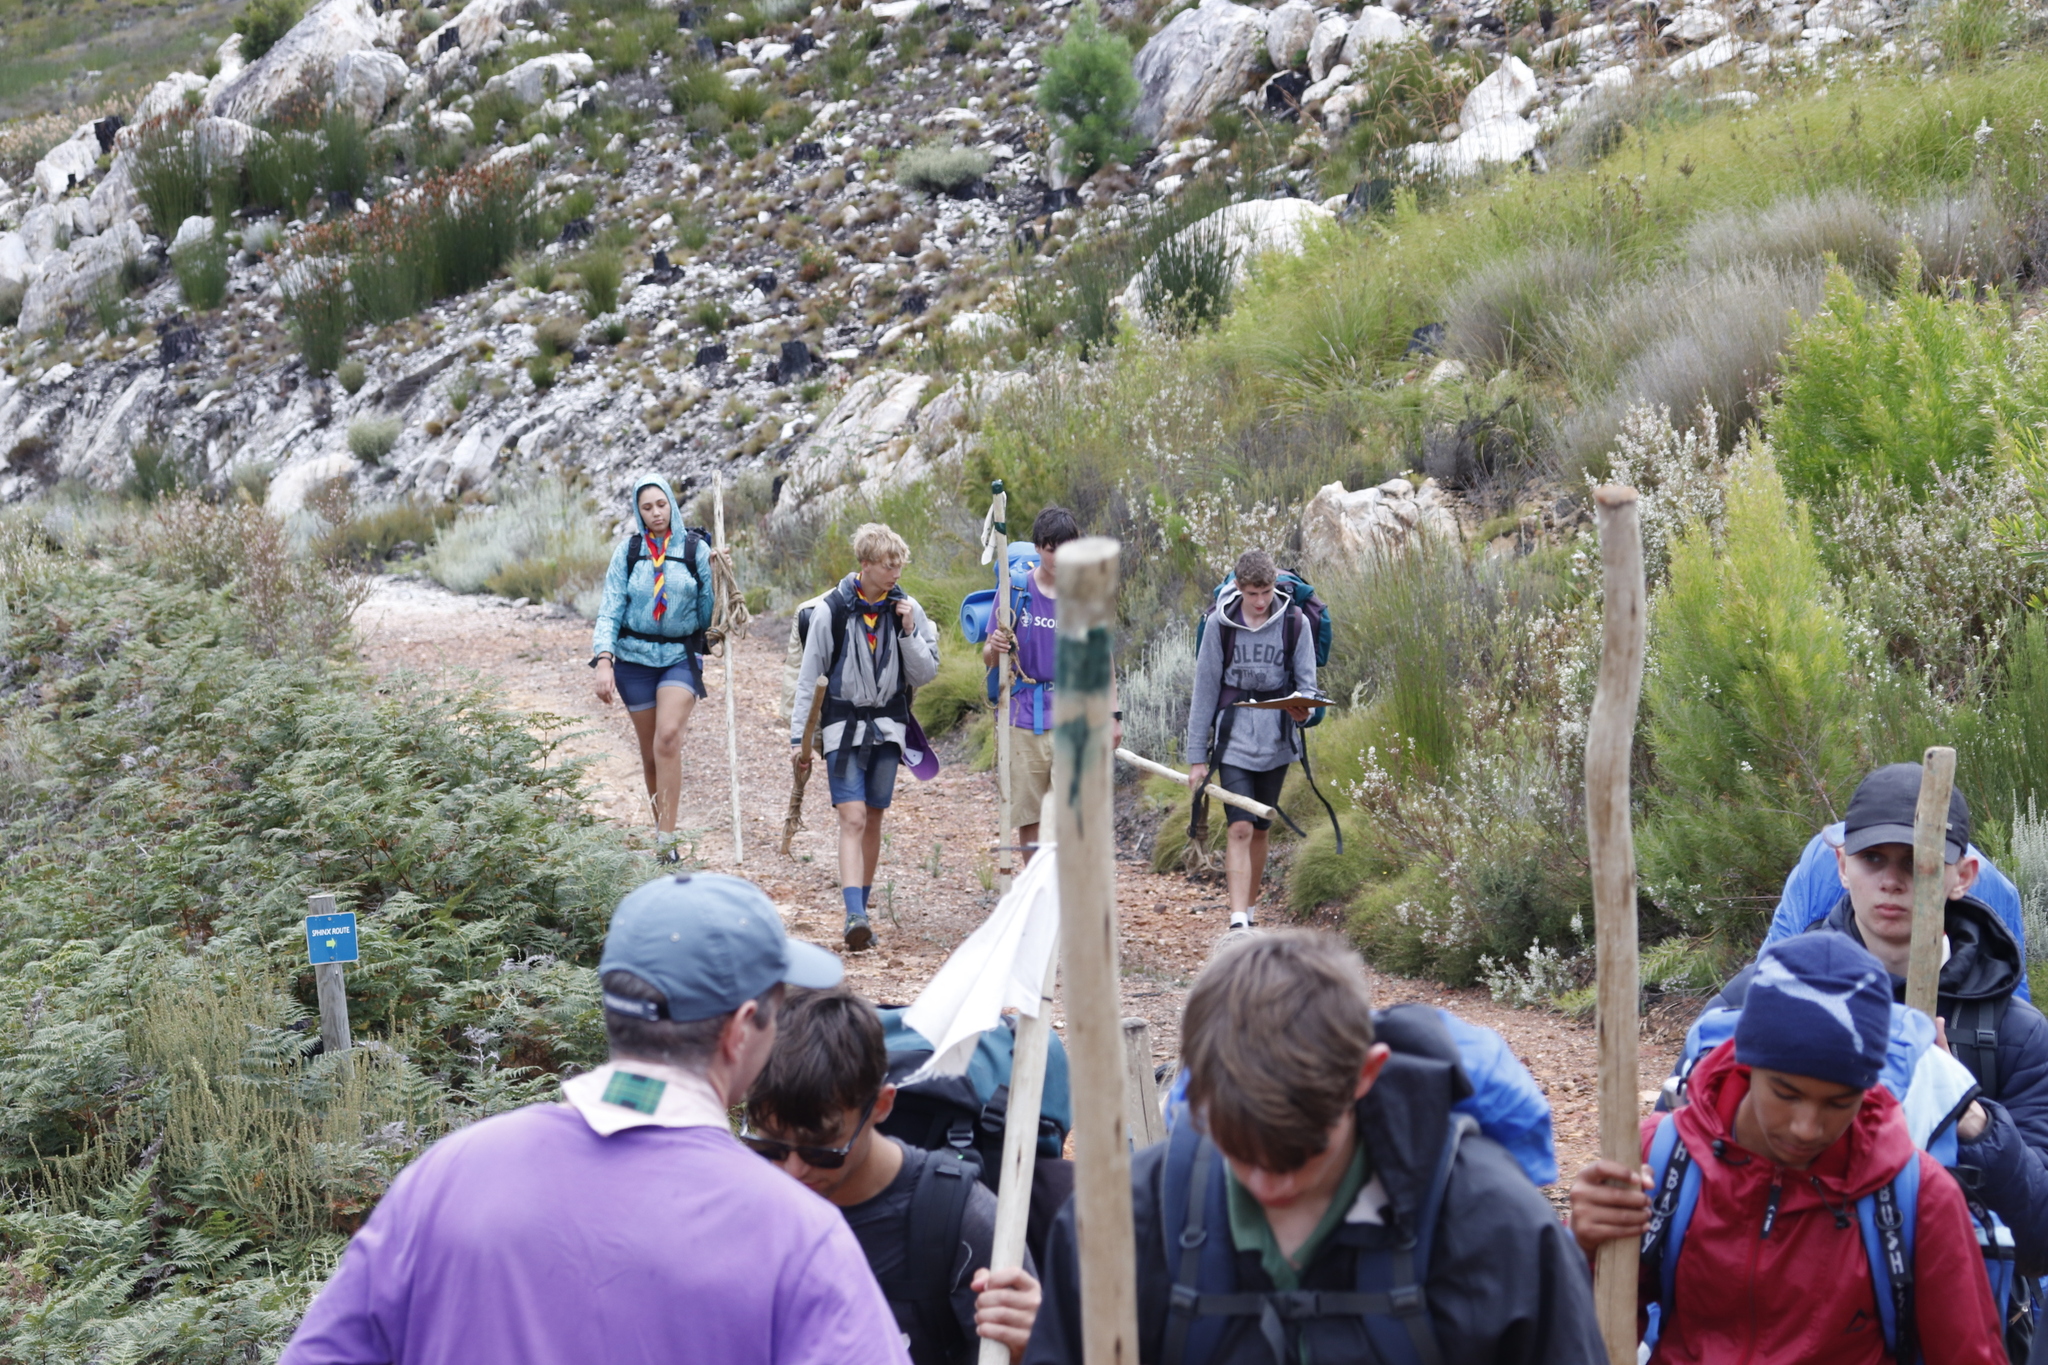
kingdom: Plantae
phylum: Tracheophyta
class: Magnoliopsida
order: Fabales
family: Fabaceae
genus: Acacia
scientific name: Acacia longifolia
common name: Sydney golden wattle
